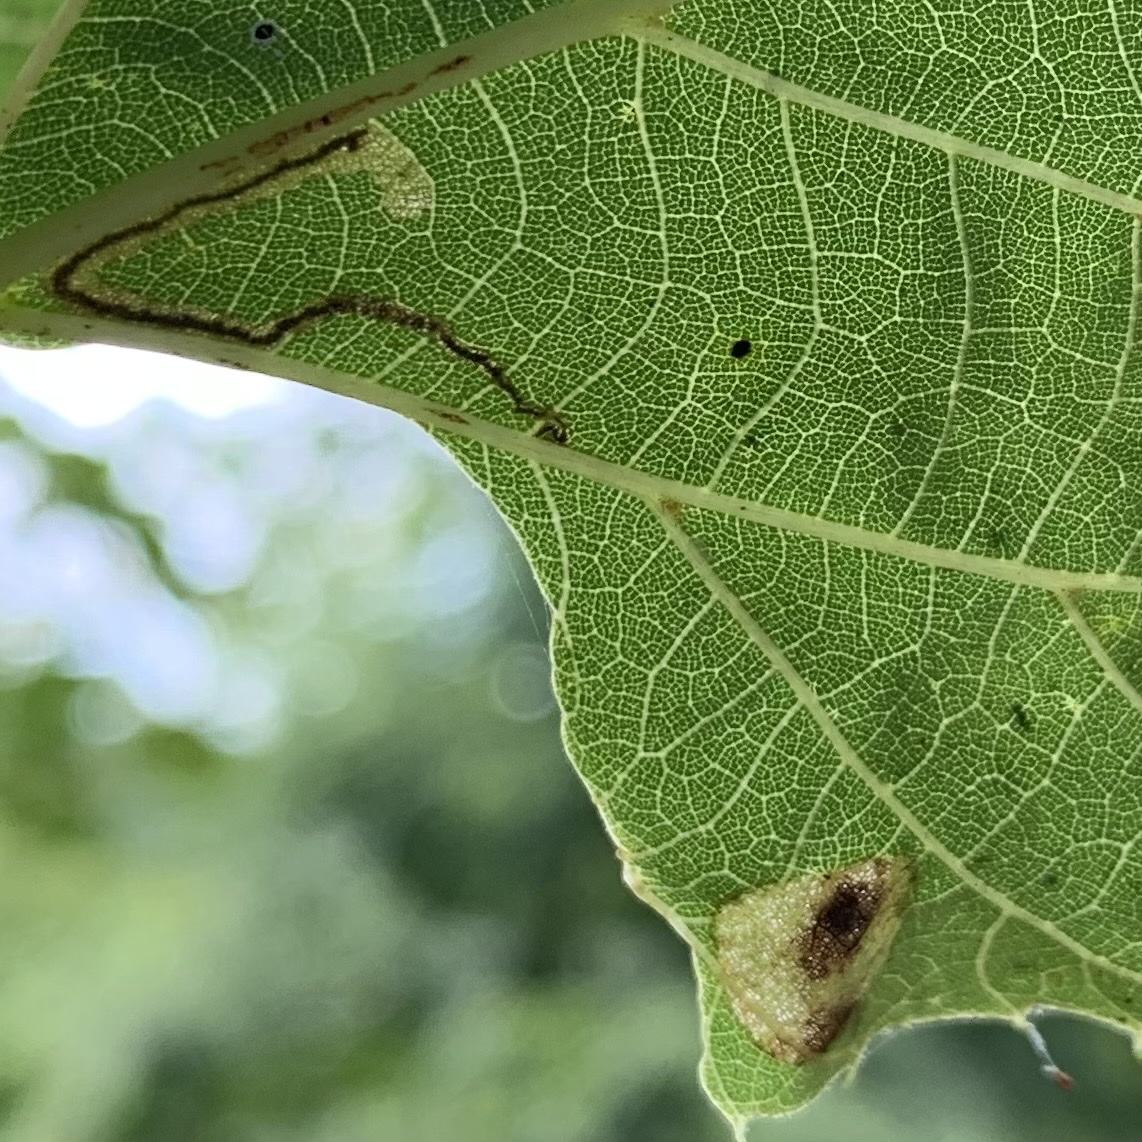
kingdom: Animalia
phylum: Arthropoda
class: Insecta
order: Lepidoptera
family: Gracillariidae
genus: Phyllonorycter
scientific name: Phyllonorycter lucetiella
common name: Basswood miner moth
